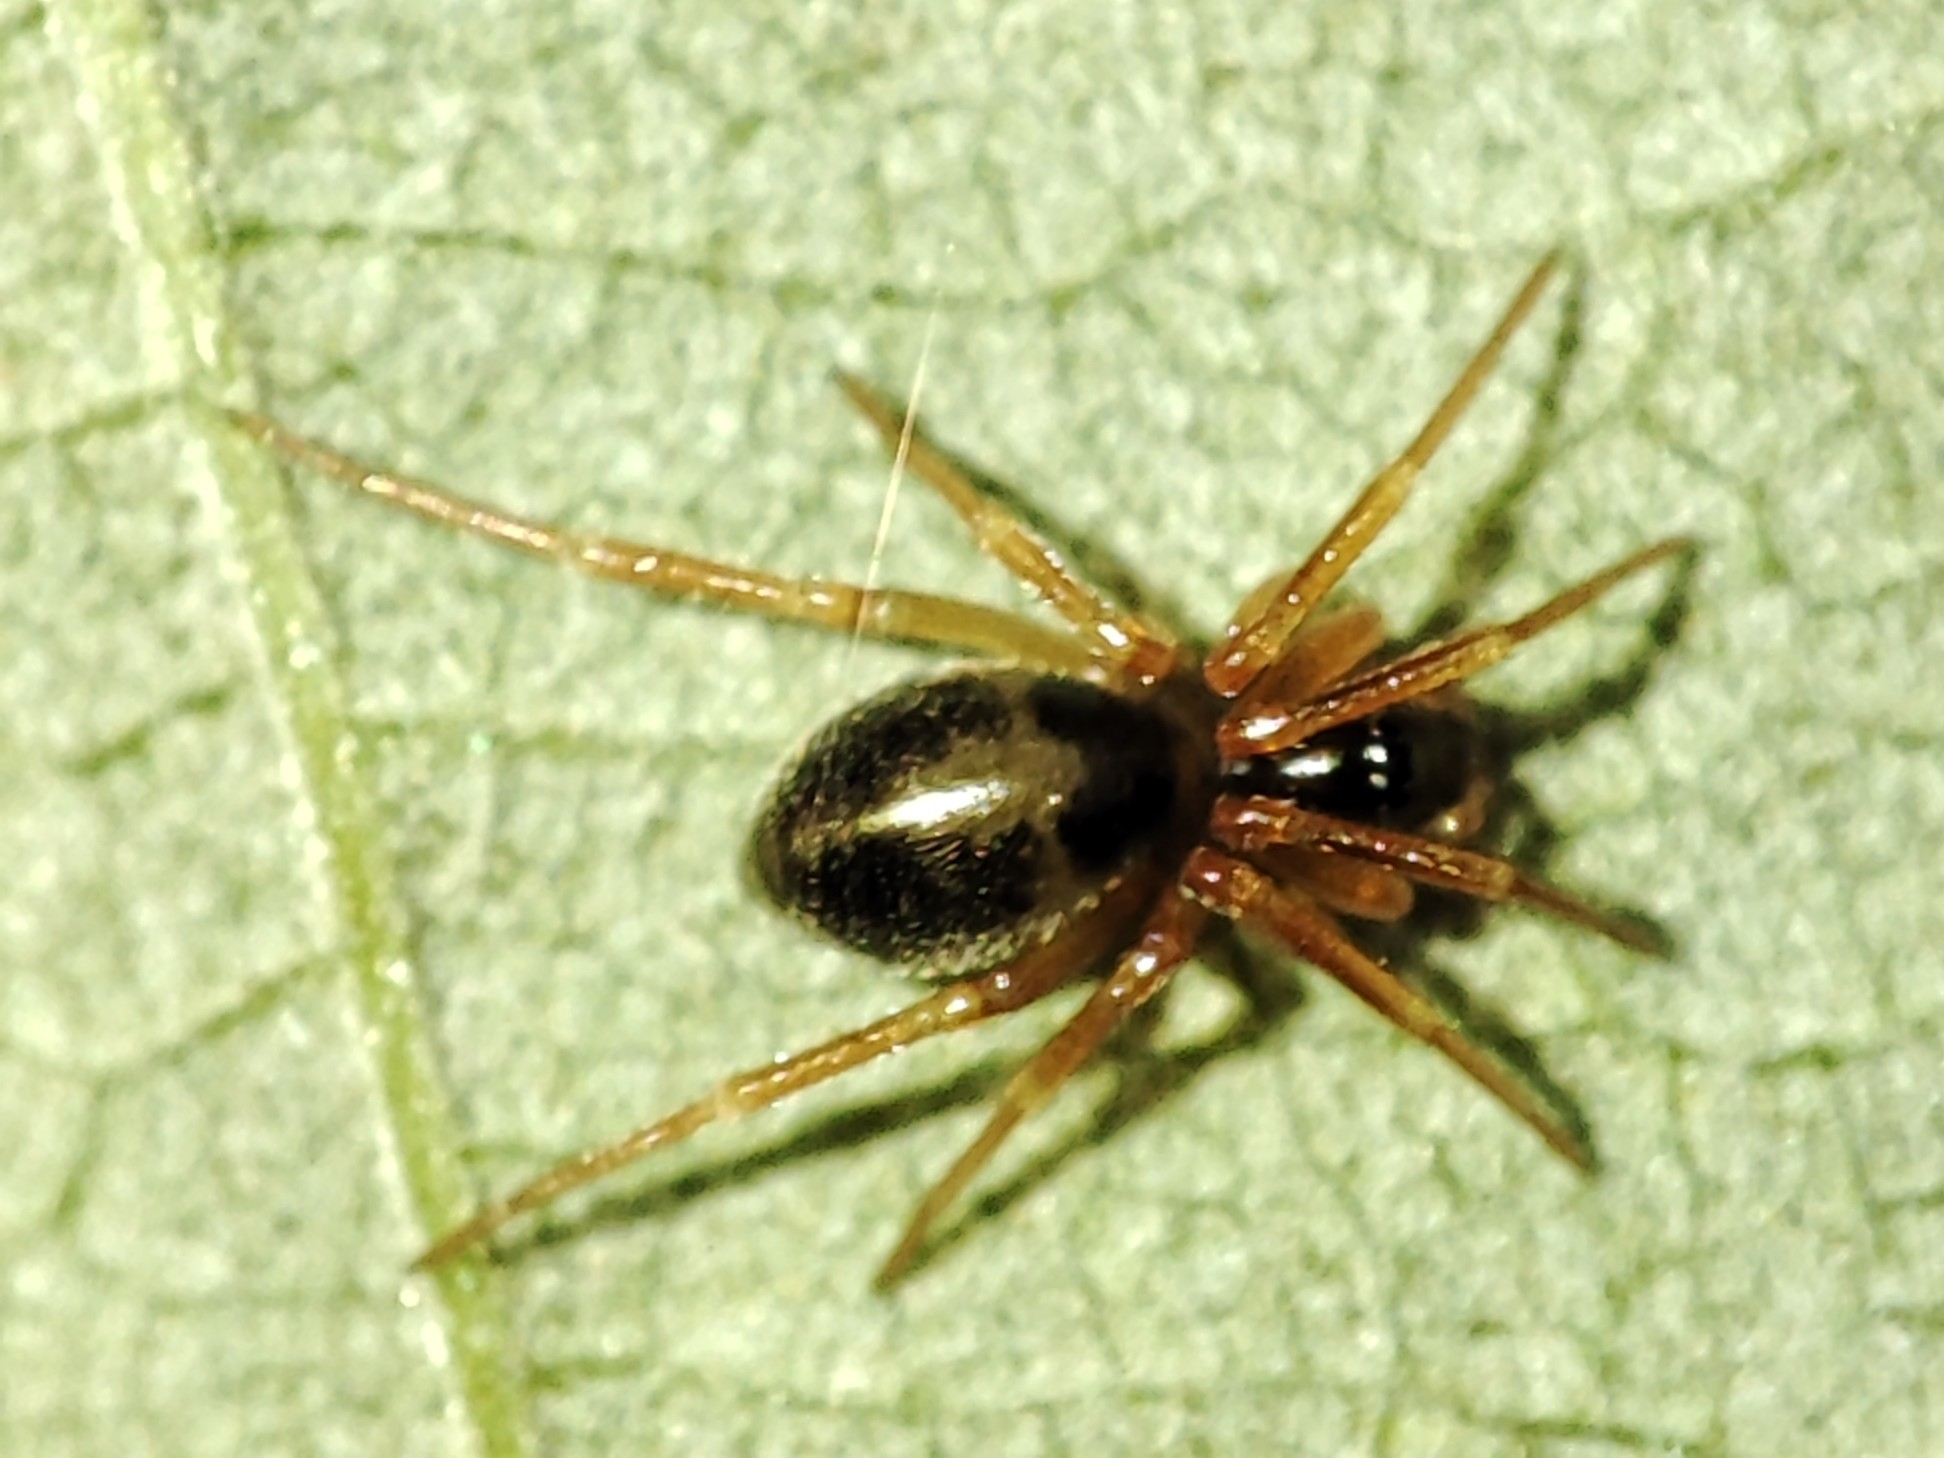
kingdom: Animalia
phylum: Arthropoda
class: Arachnida
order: Araneae
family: Linyphiidae
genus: Gongylidium
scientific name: Gongylidium rufipes
